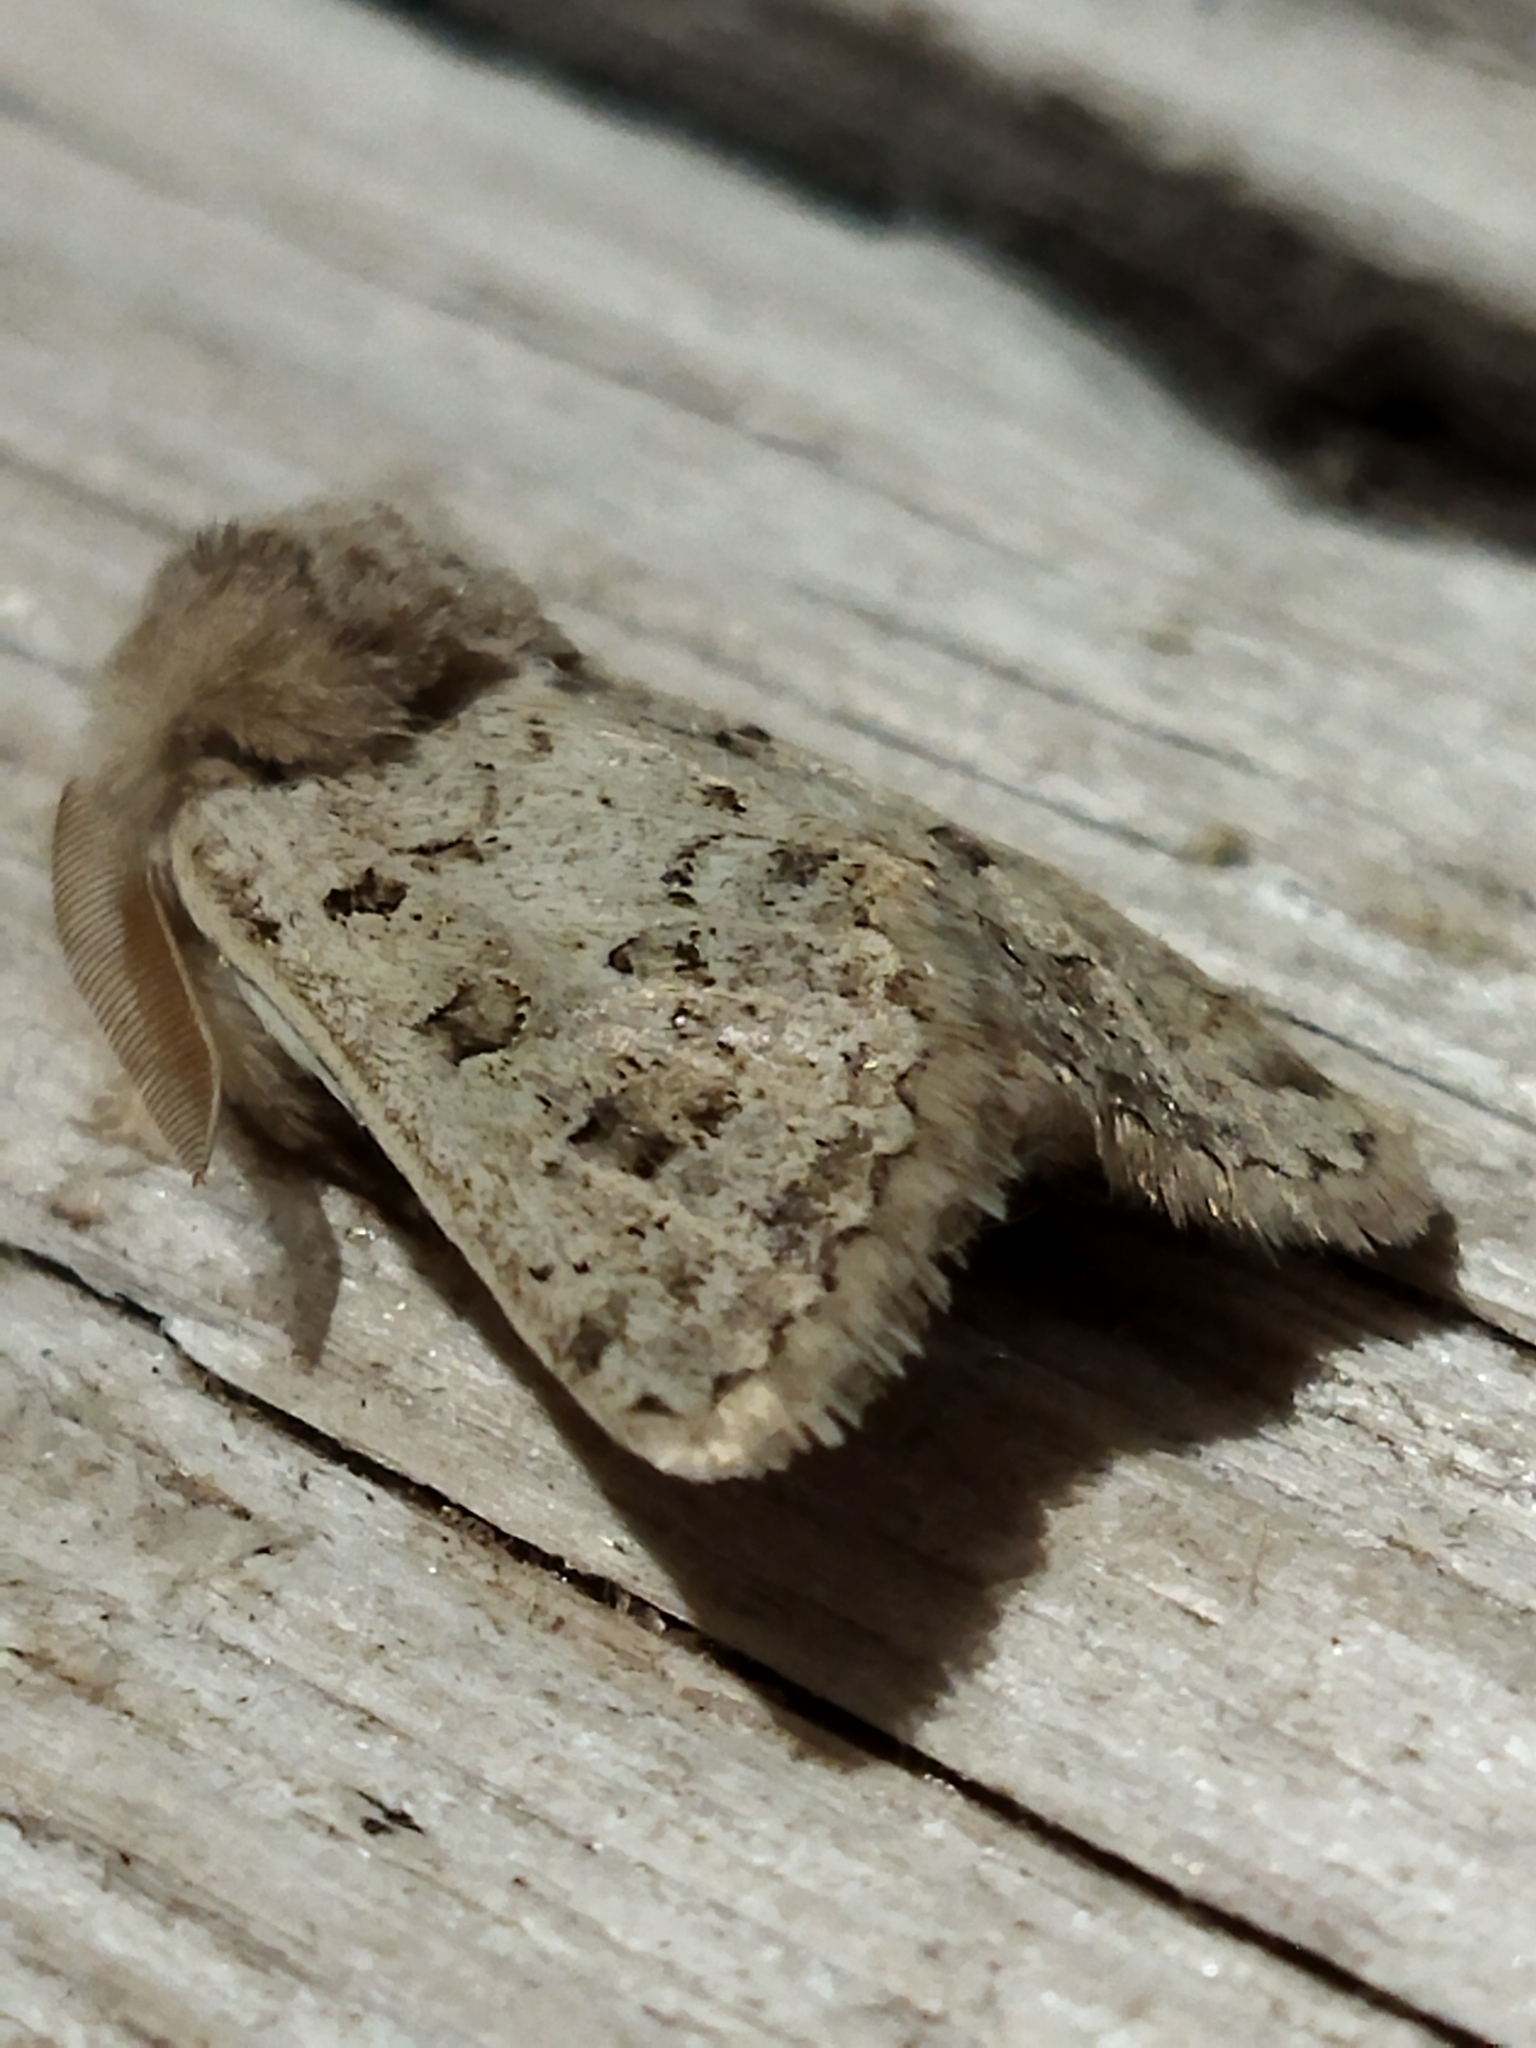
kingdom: Animalia
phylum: Arthropoda
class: Insecta
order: Lepidoptera
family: Noctuidae
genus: Episema
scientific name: Episema lederi
